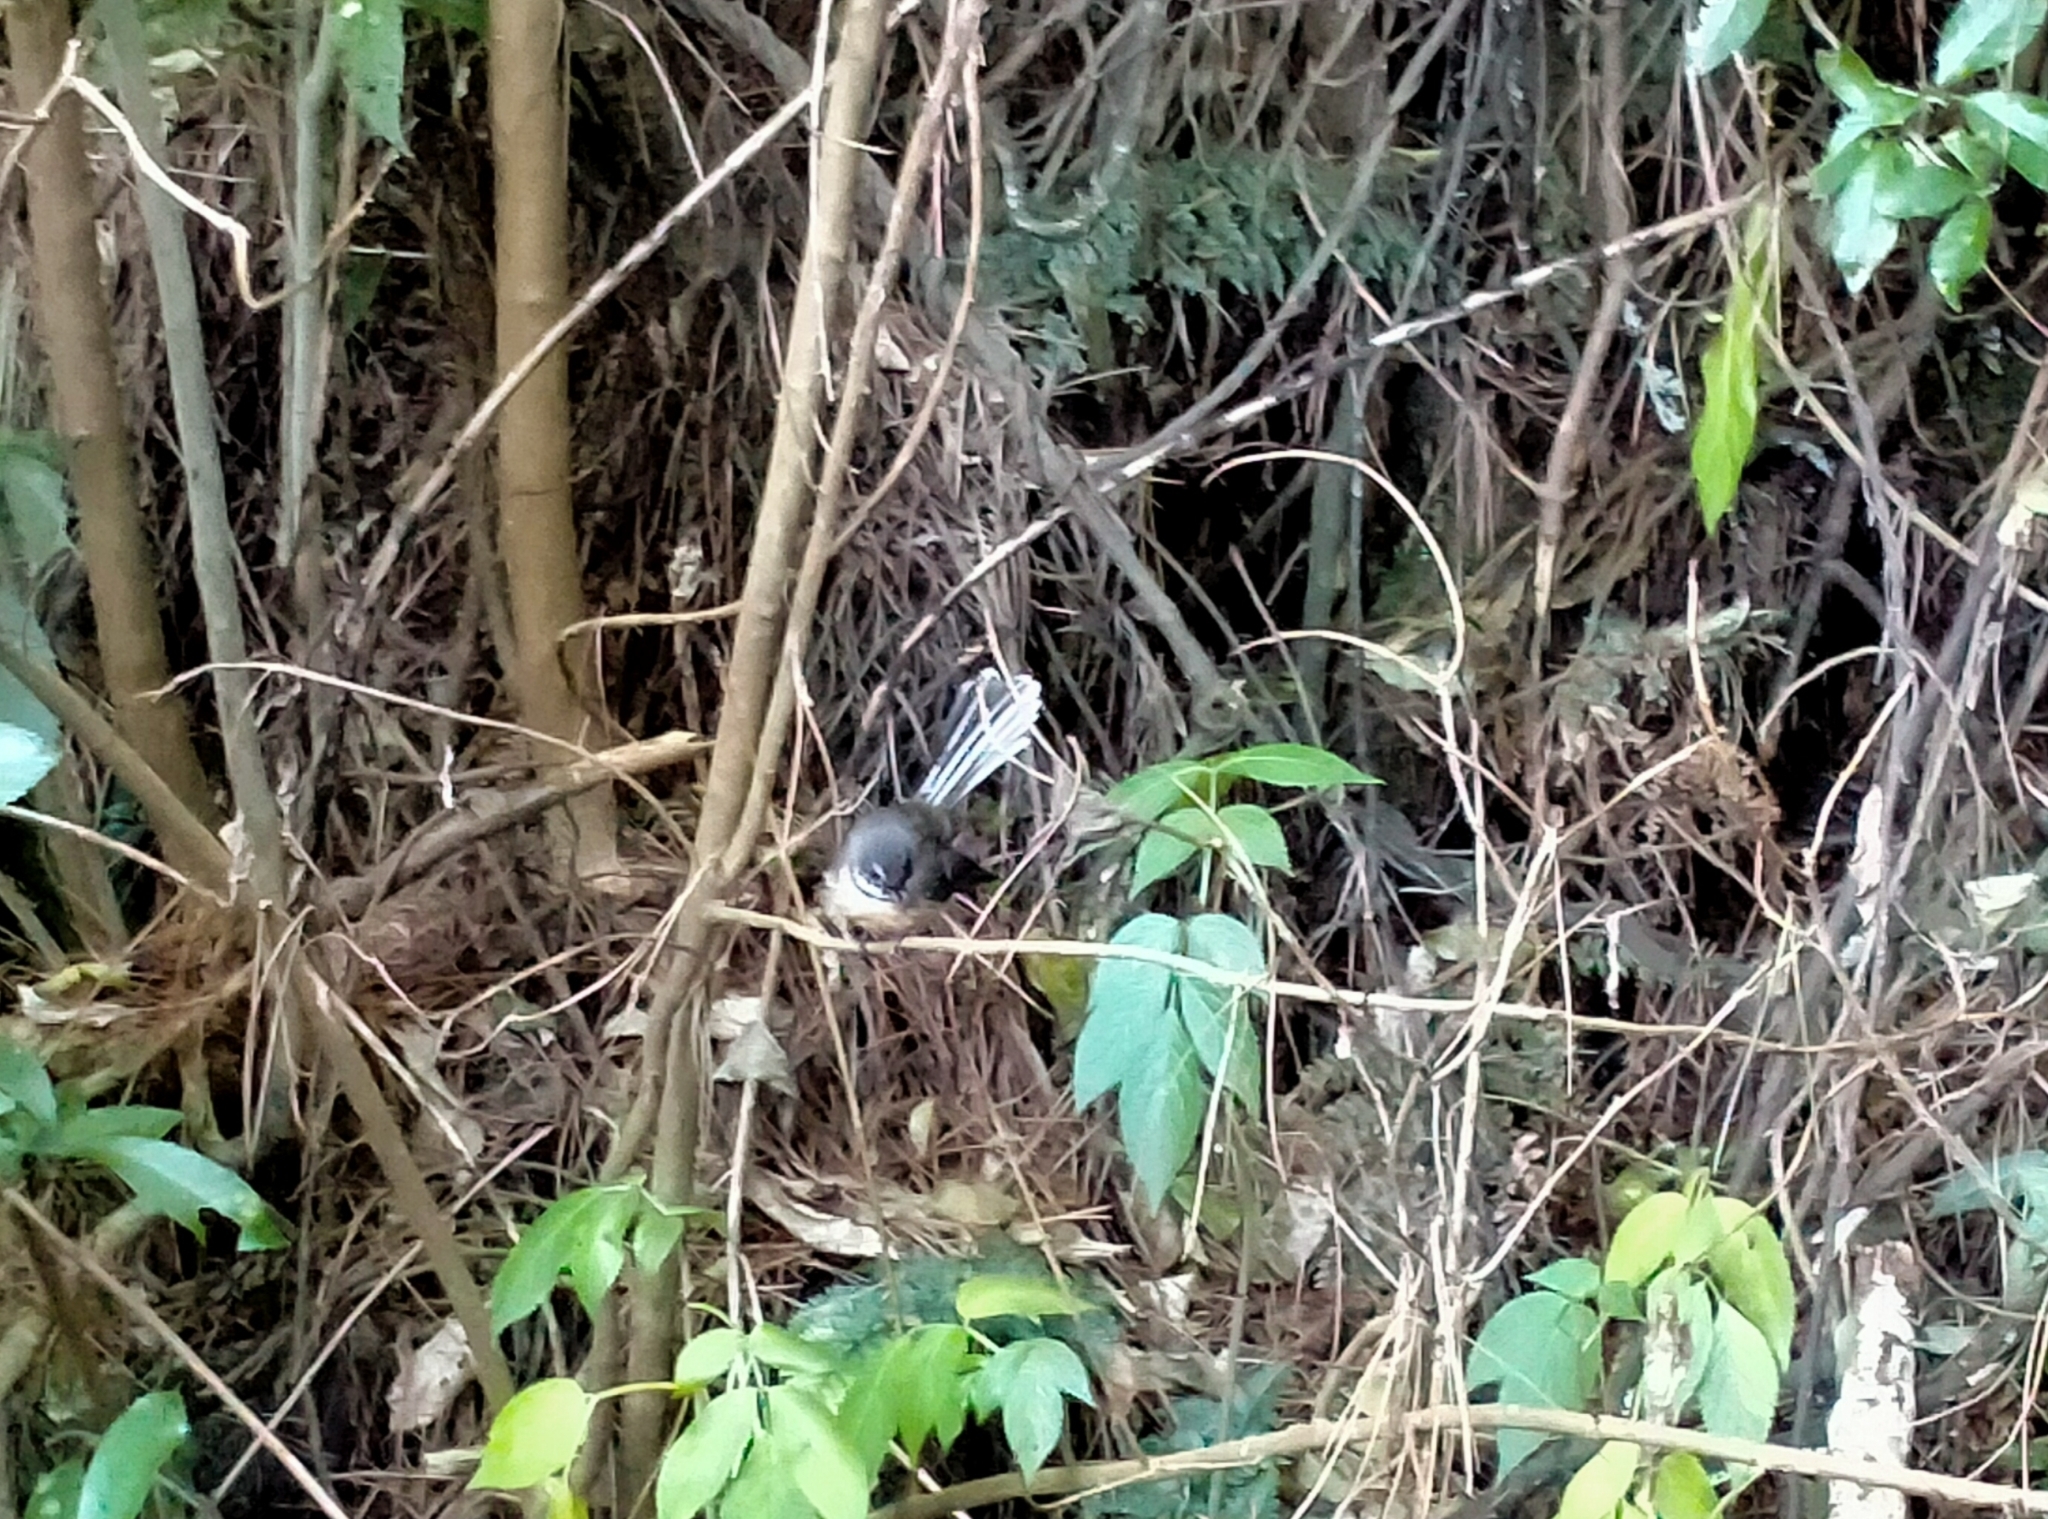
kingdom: Animalia
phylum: Chordata
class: Aves
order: Passeriformes
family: Rhipiduridae
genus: Rhipidura
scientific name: Rhipidura fuliginosa
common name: New zealand fantail
